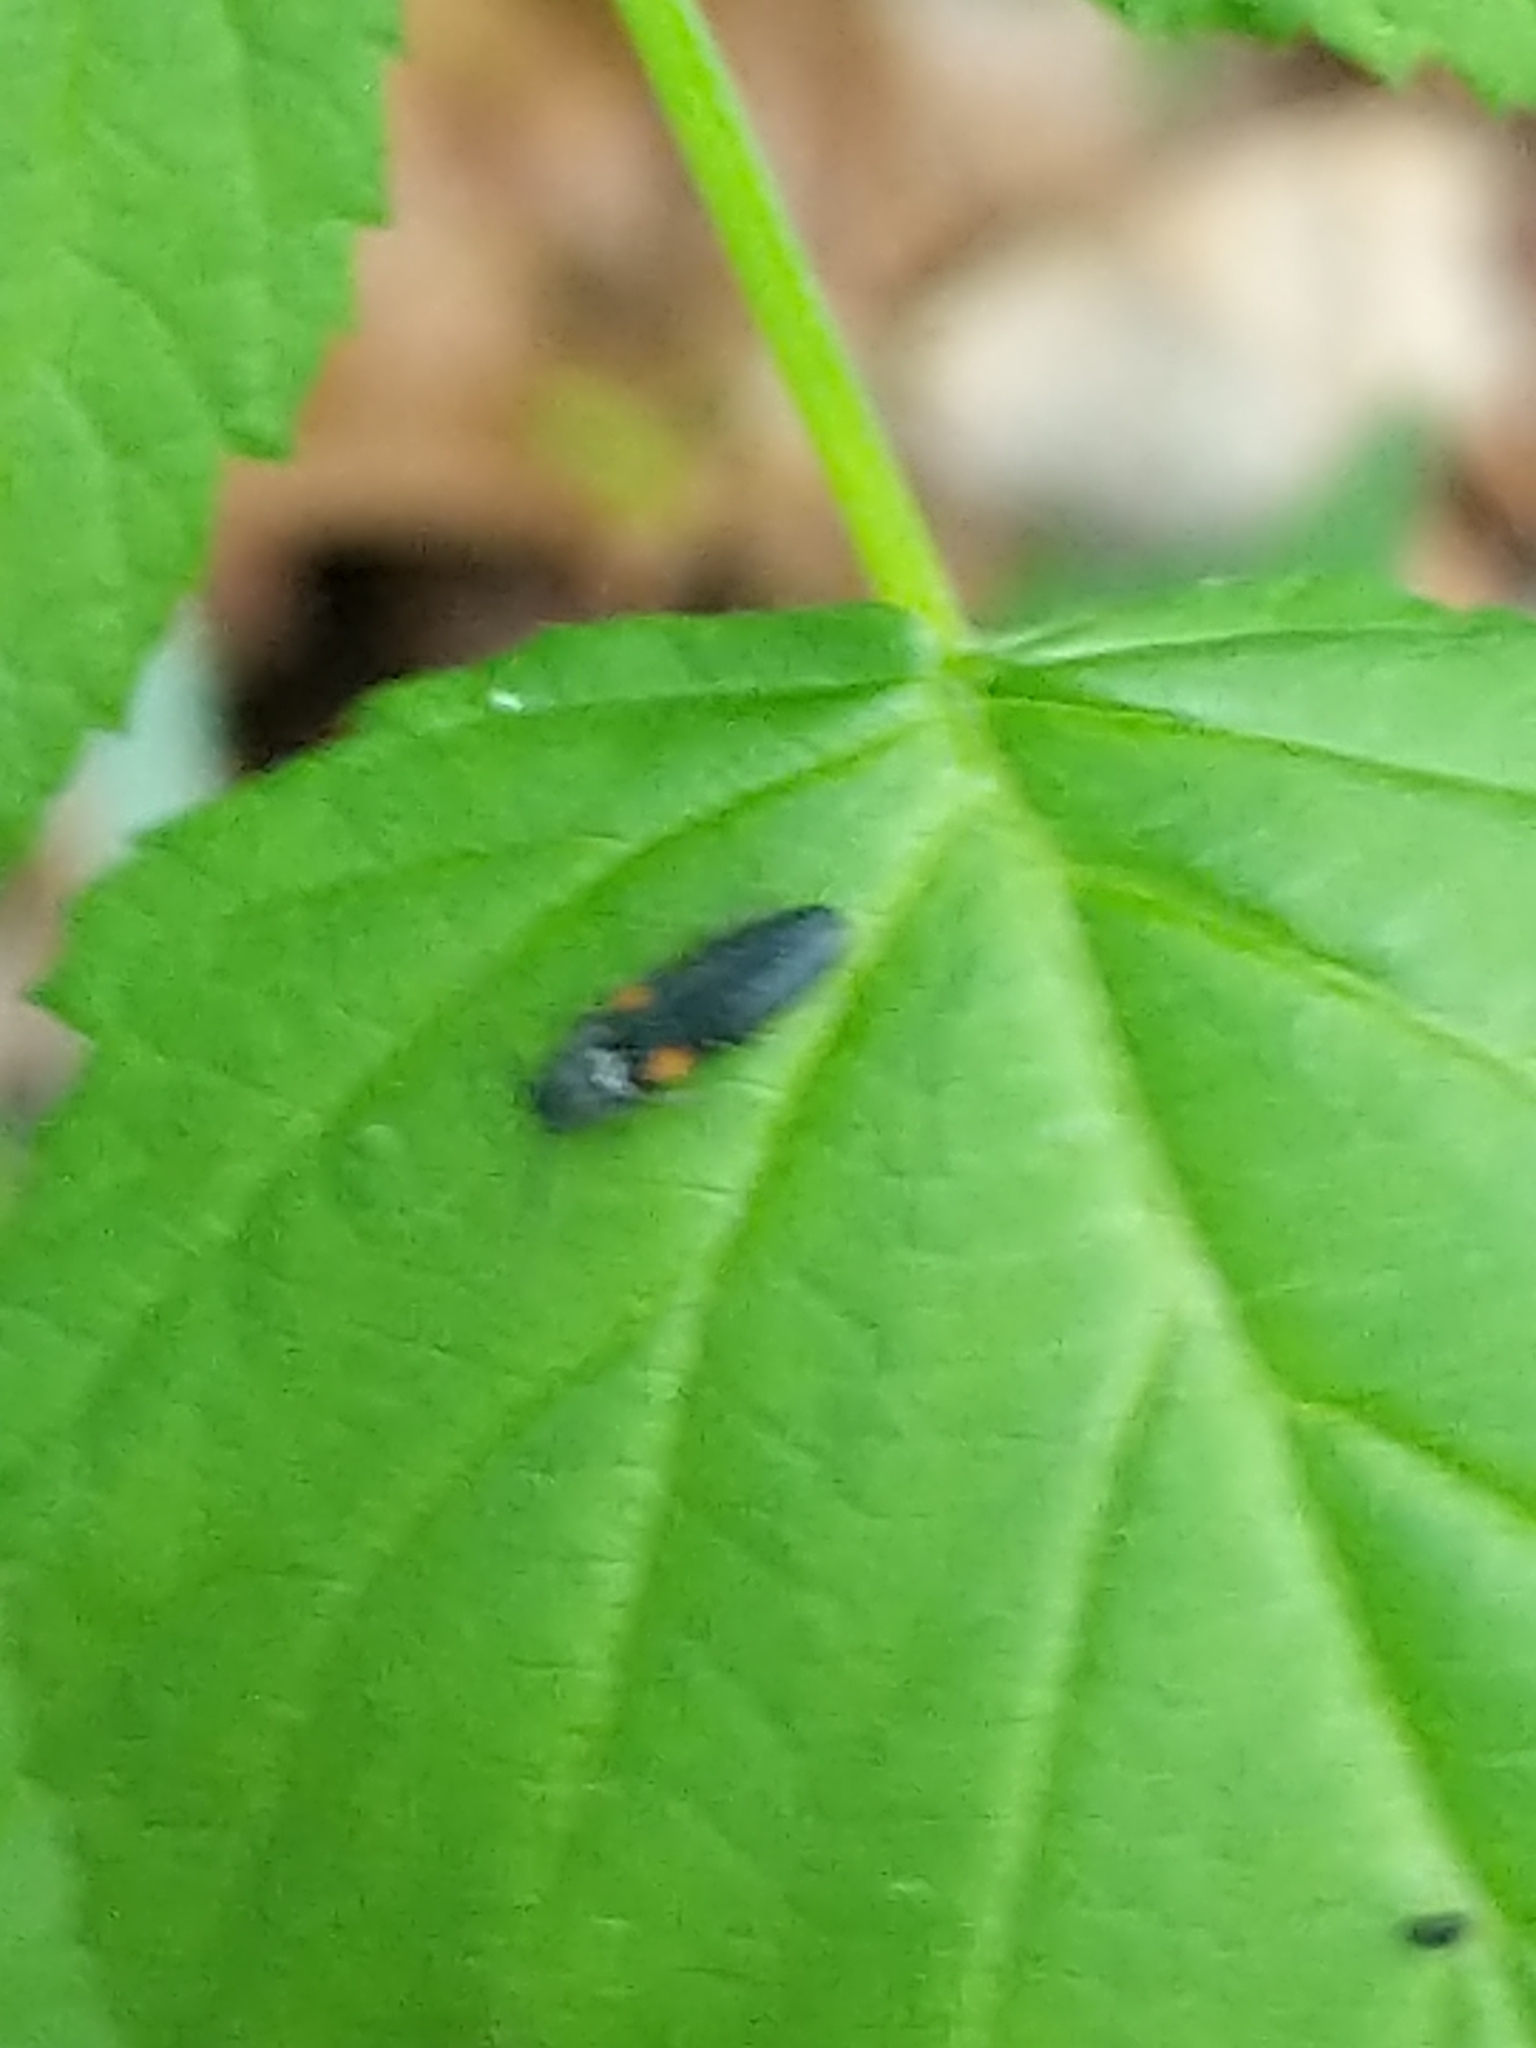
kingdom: Animalia
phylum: Arthropoda
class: Insecta
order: Coleoptera
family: Elateridae
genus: Gambrinus
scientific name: Gambrinus
